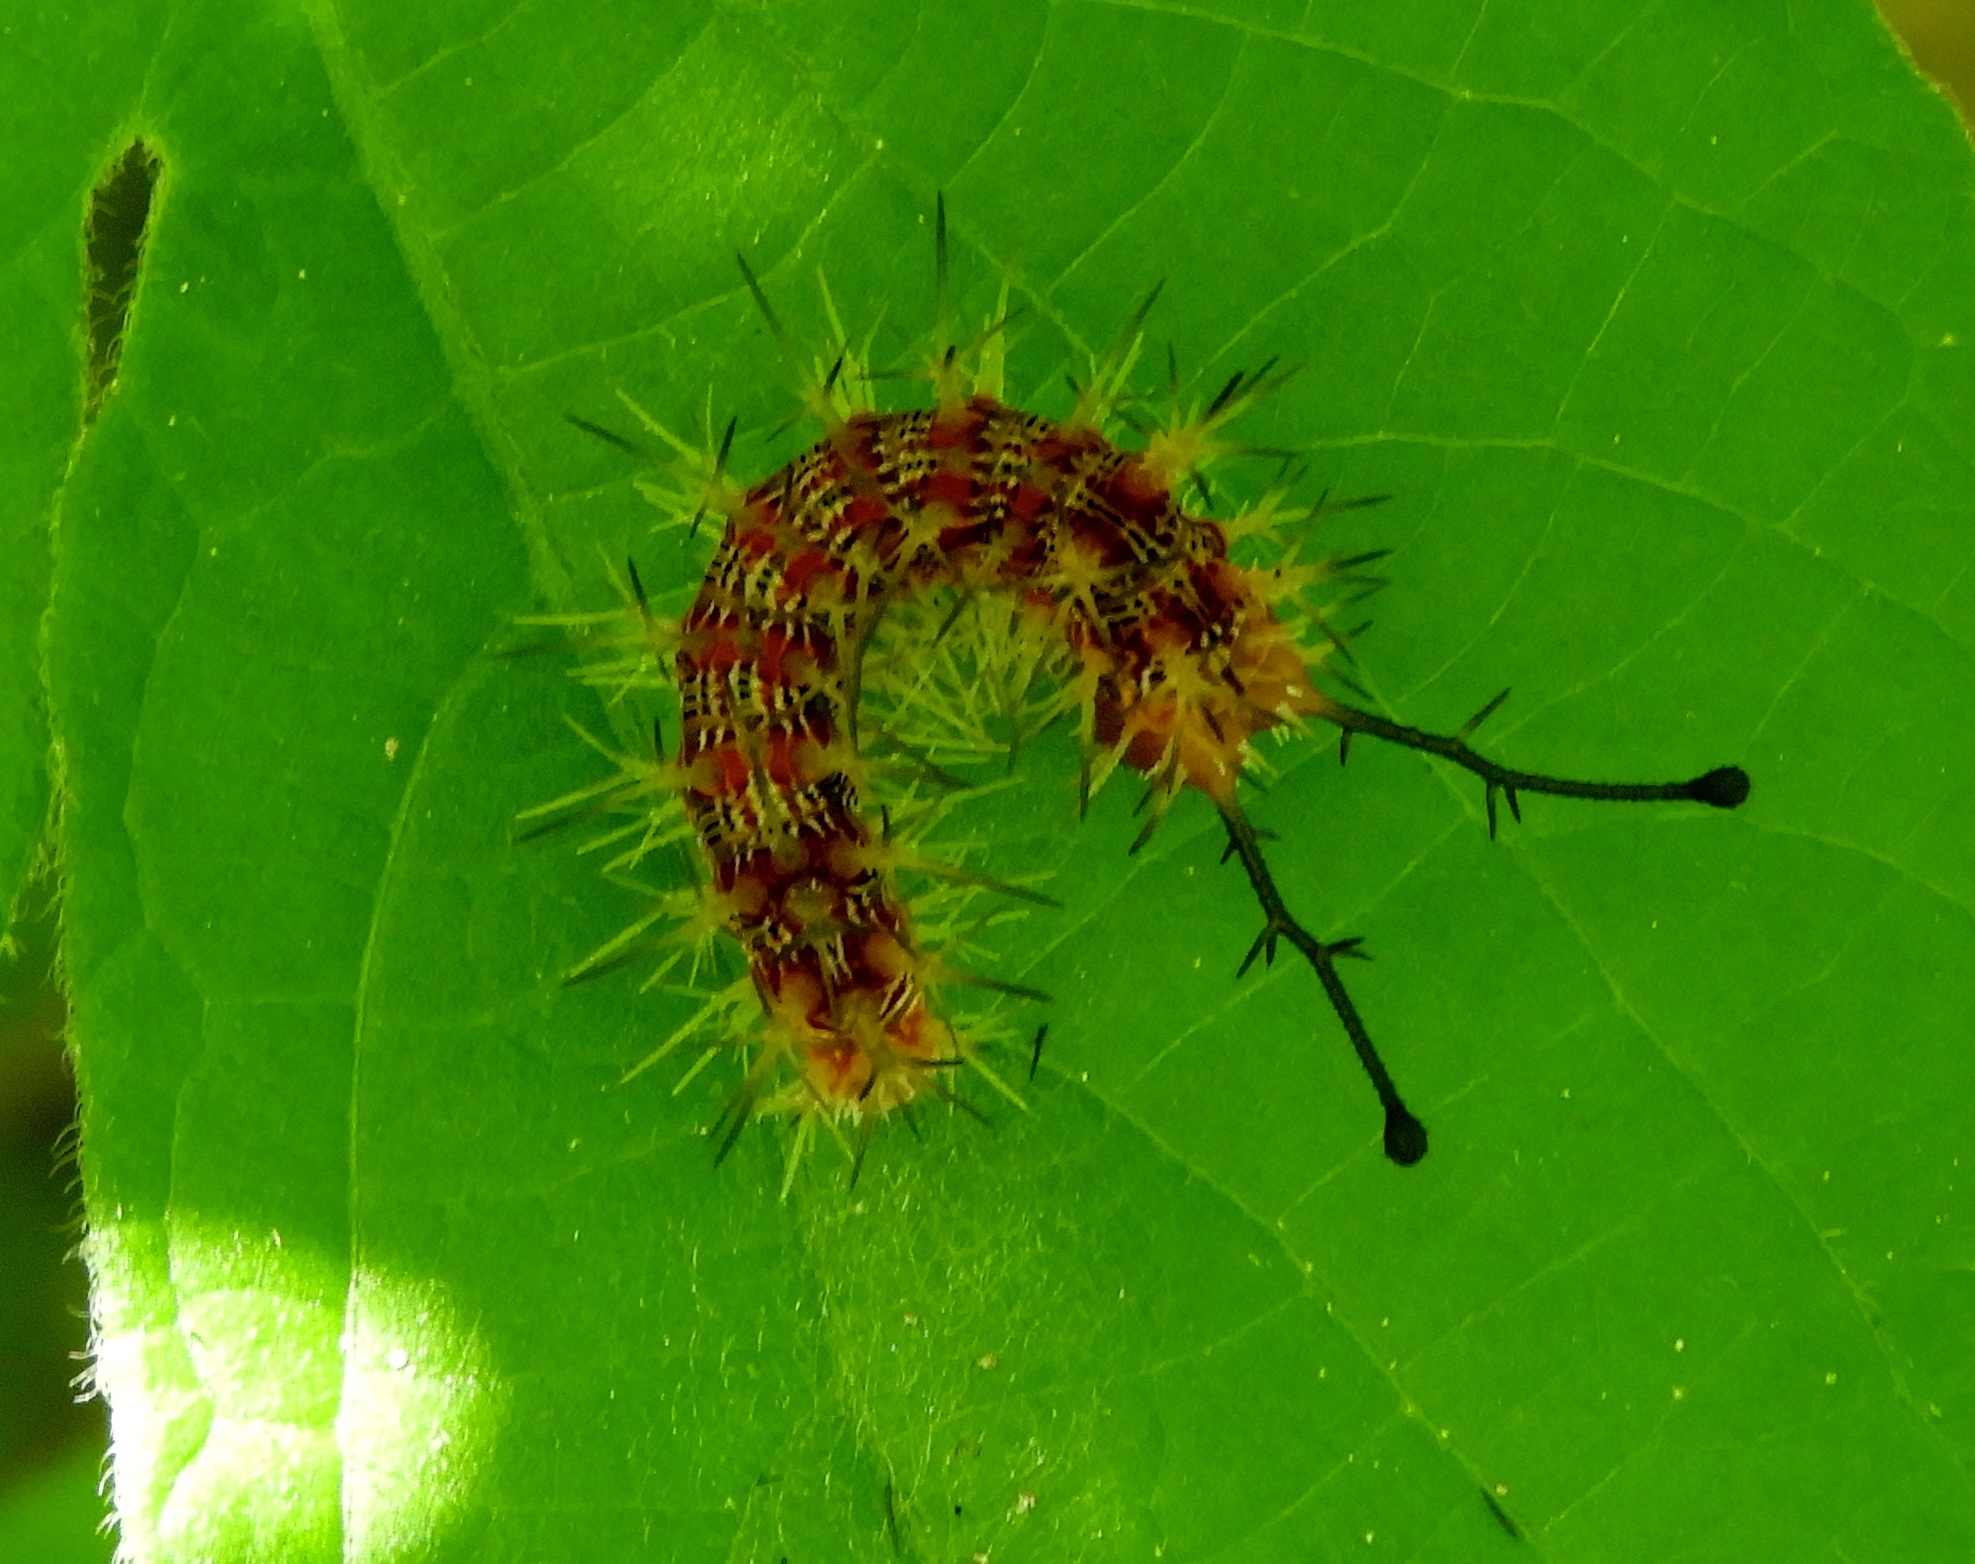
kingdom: Animalia
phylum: Arthropoda
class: Insecta
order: Lepidoptera
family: Nymphalidae
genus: Hamadryas
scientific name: Hamadryas februa
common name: Gray cracker
